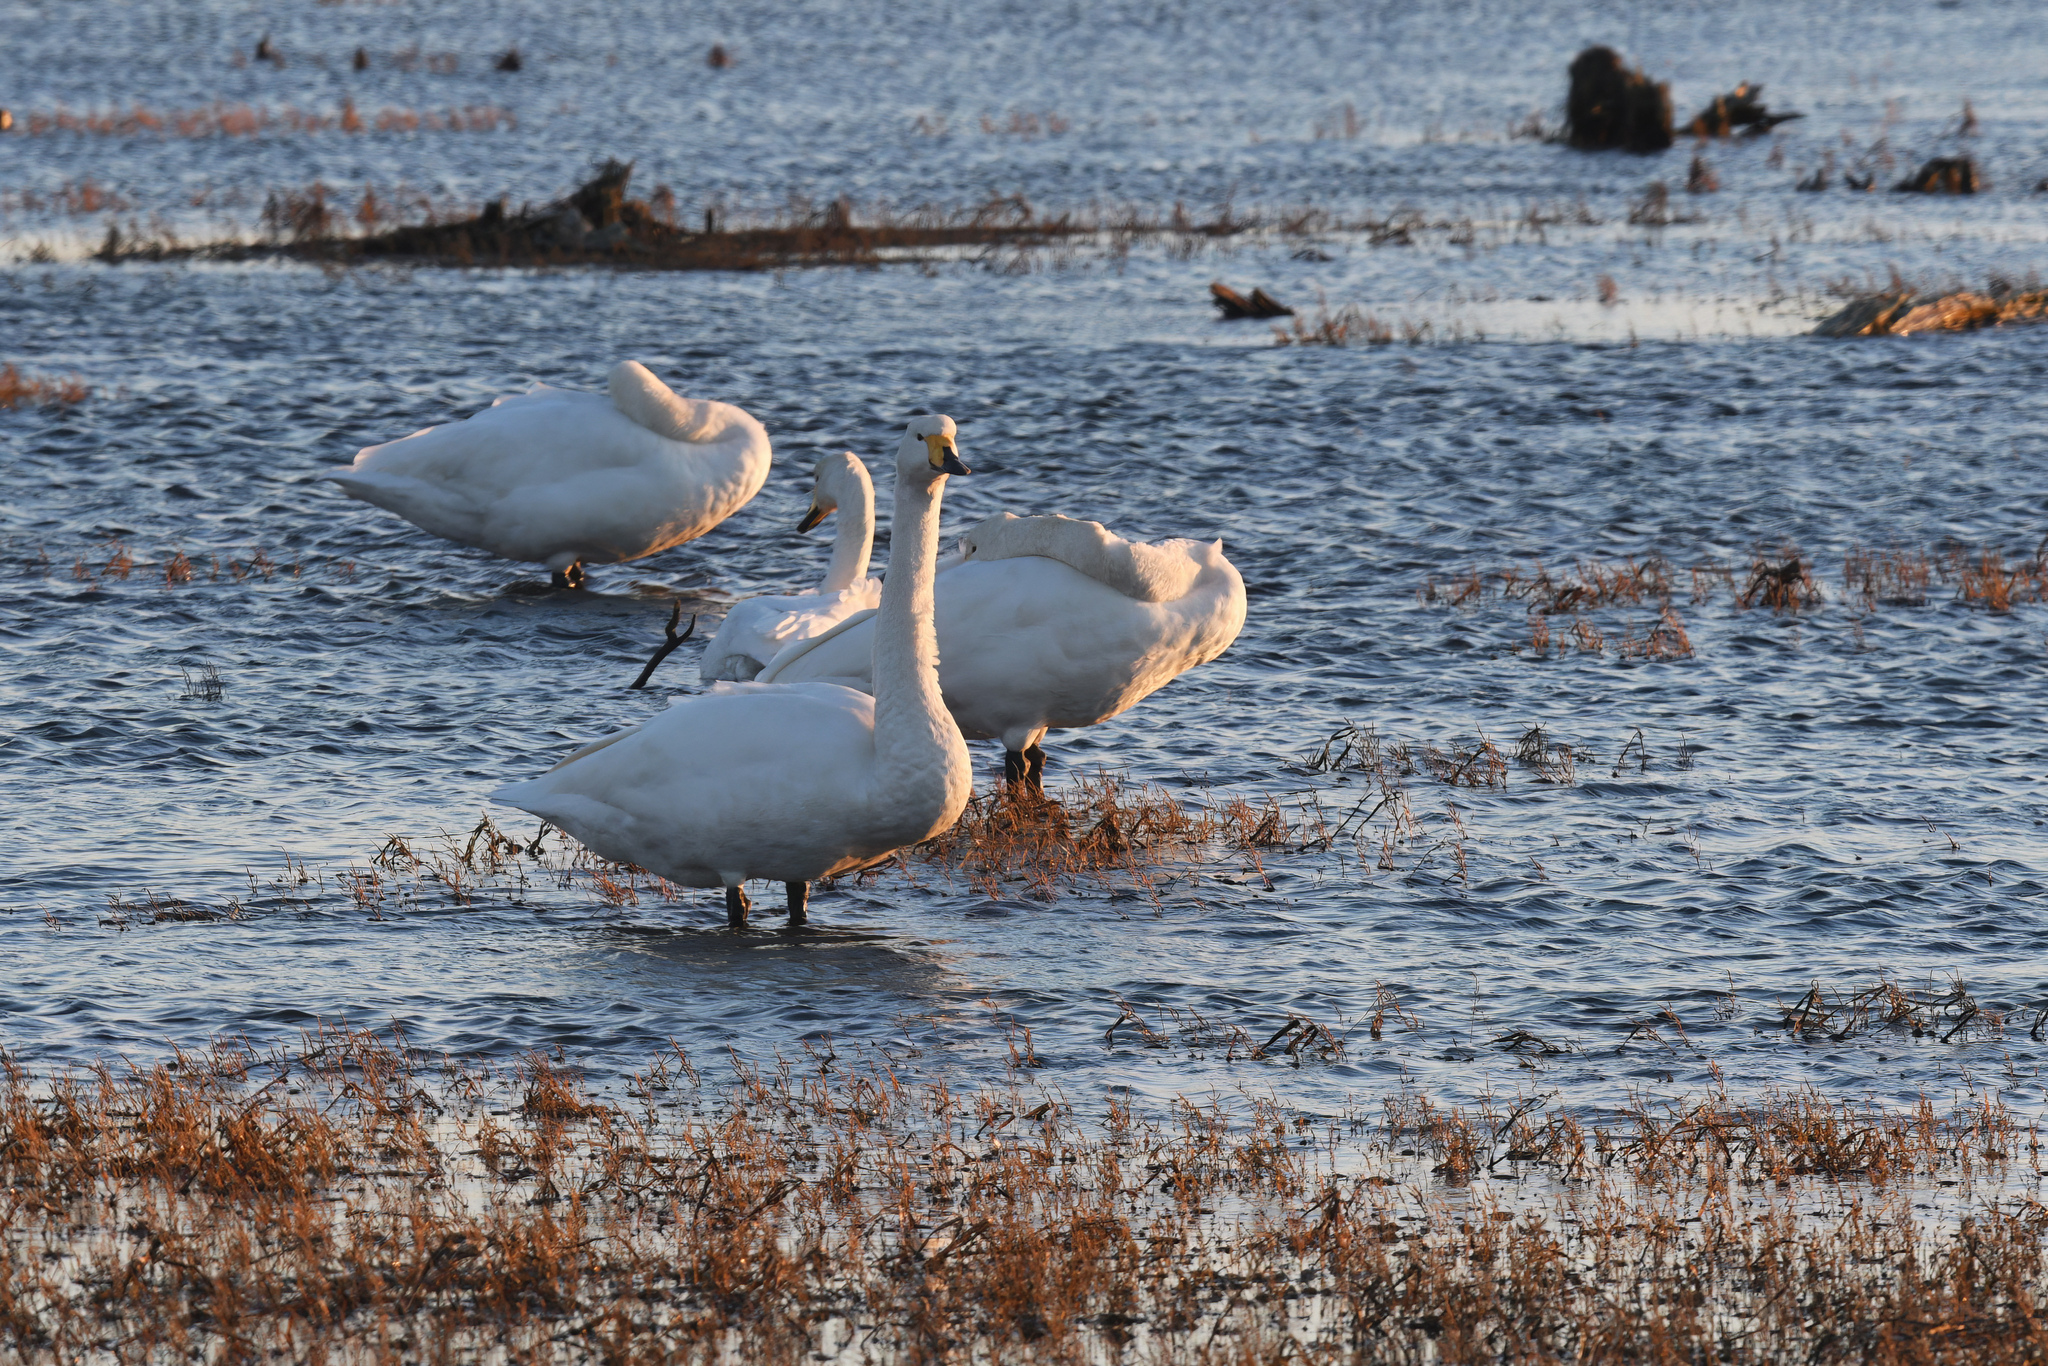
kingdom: Animalia
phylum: Chordata
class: Aves
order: Anseriformes
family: Anatidae
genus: Cygnus
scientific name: Cygnus cygnus
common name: Whooper swan
